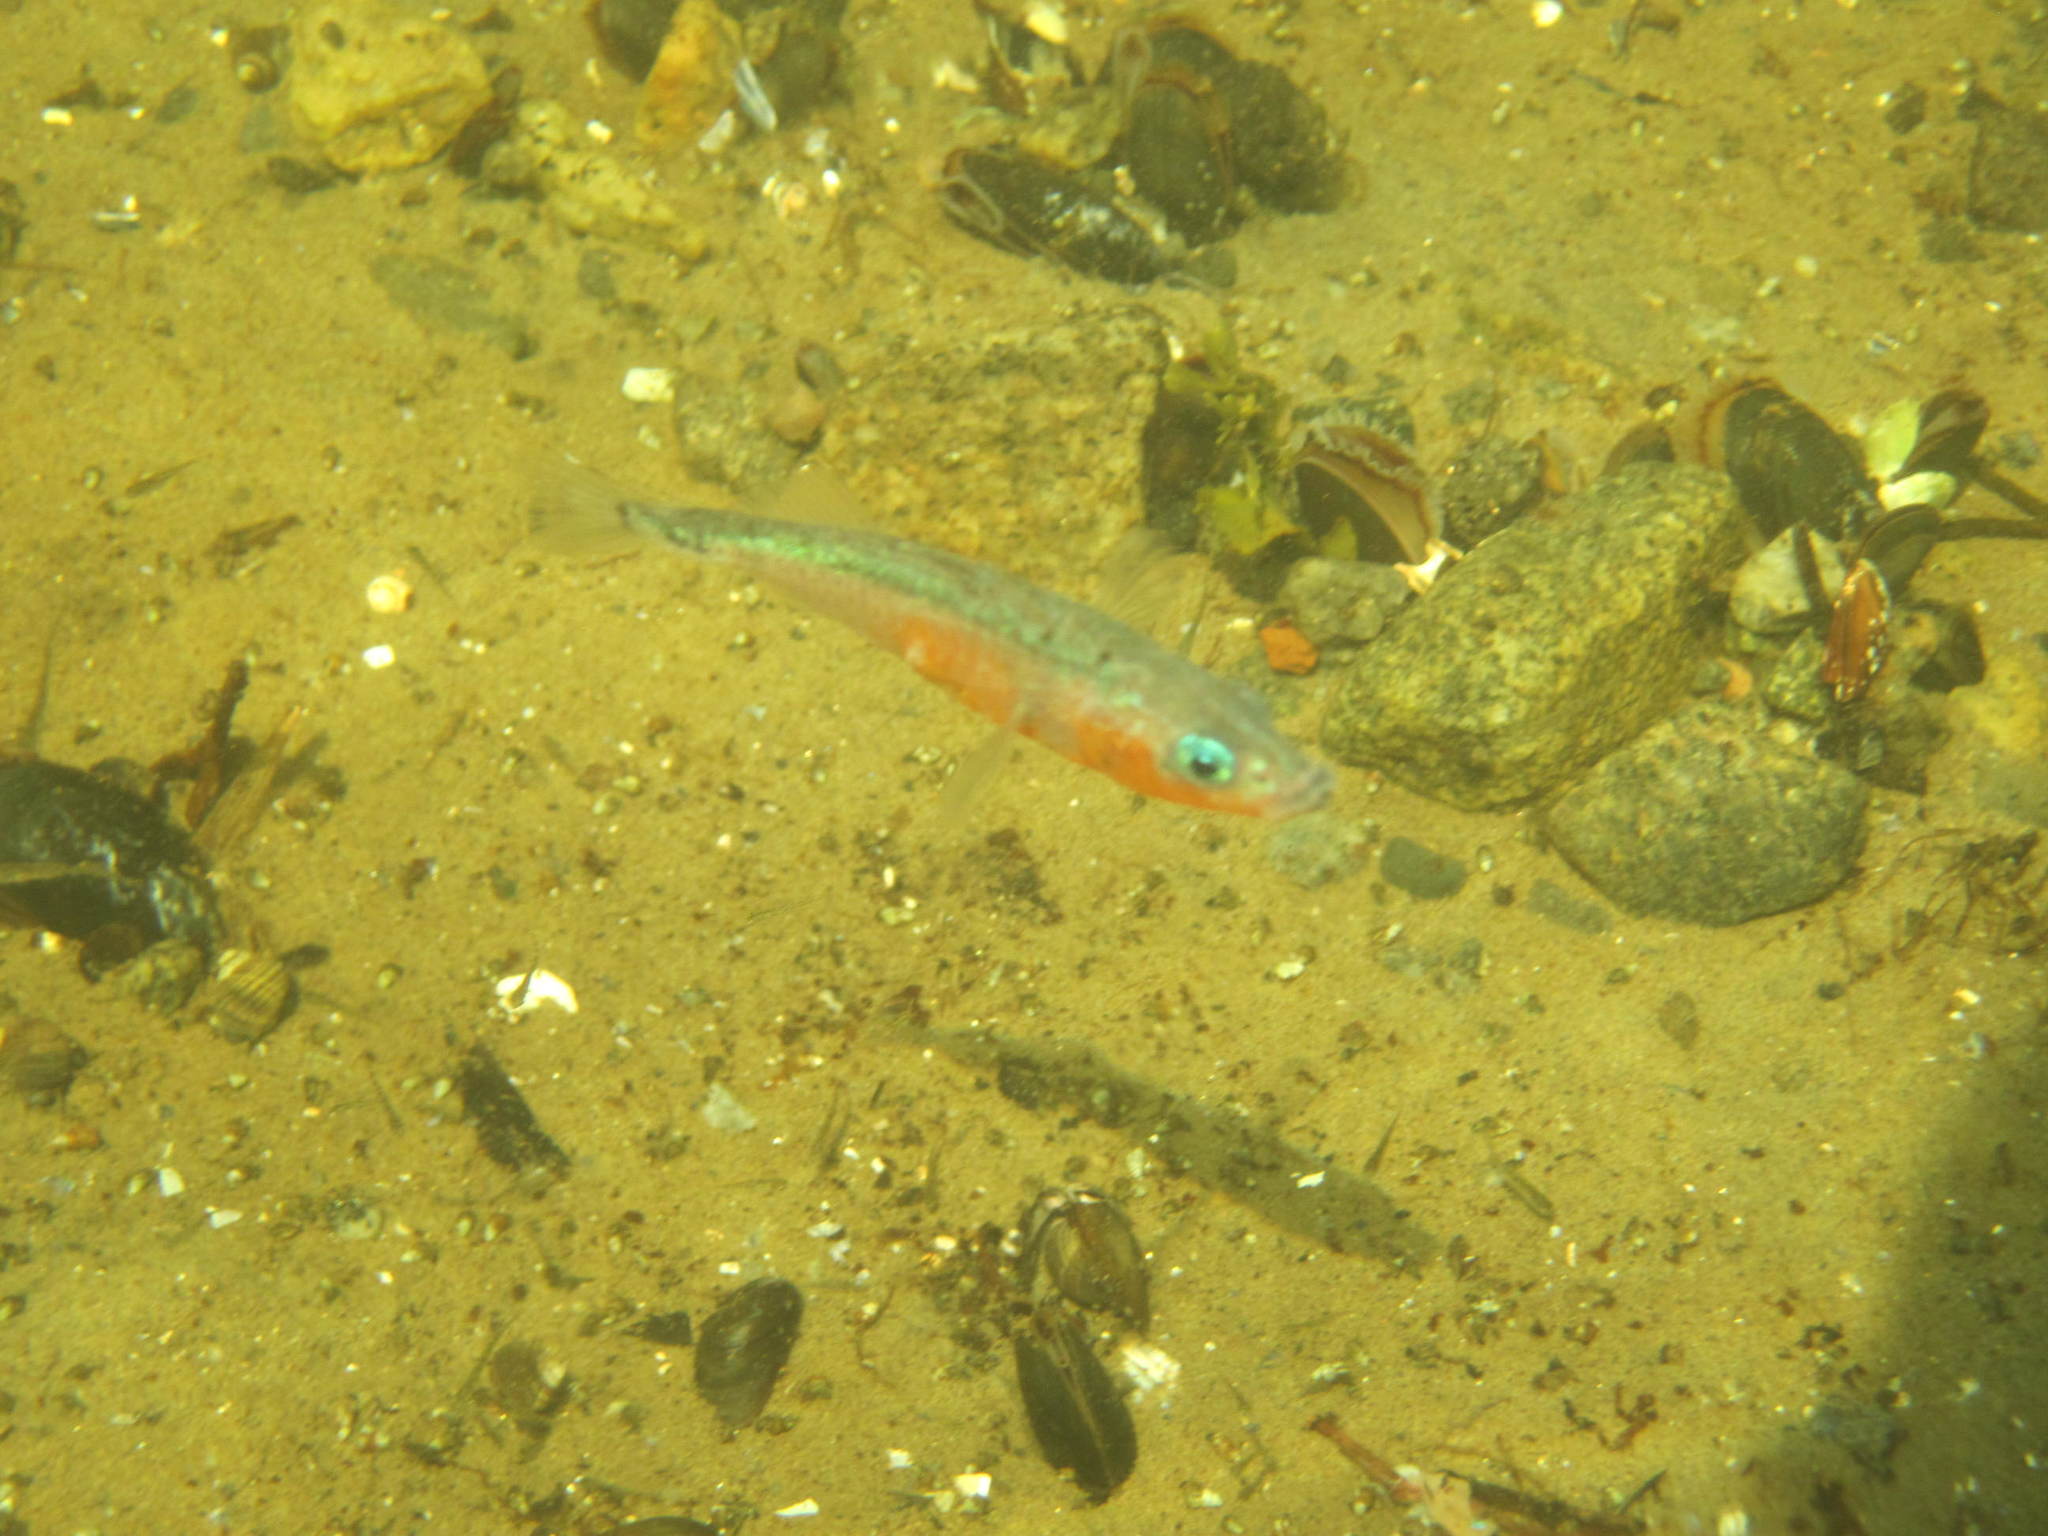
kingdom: Animalia
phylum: Chordata
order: Gasterosteiformes
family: Gasterosteidae
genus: Gasterosteus
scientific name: Gasterosteus aculeatus
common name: Three-spined stickleback
